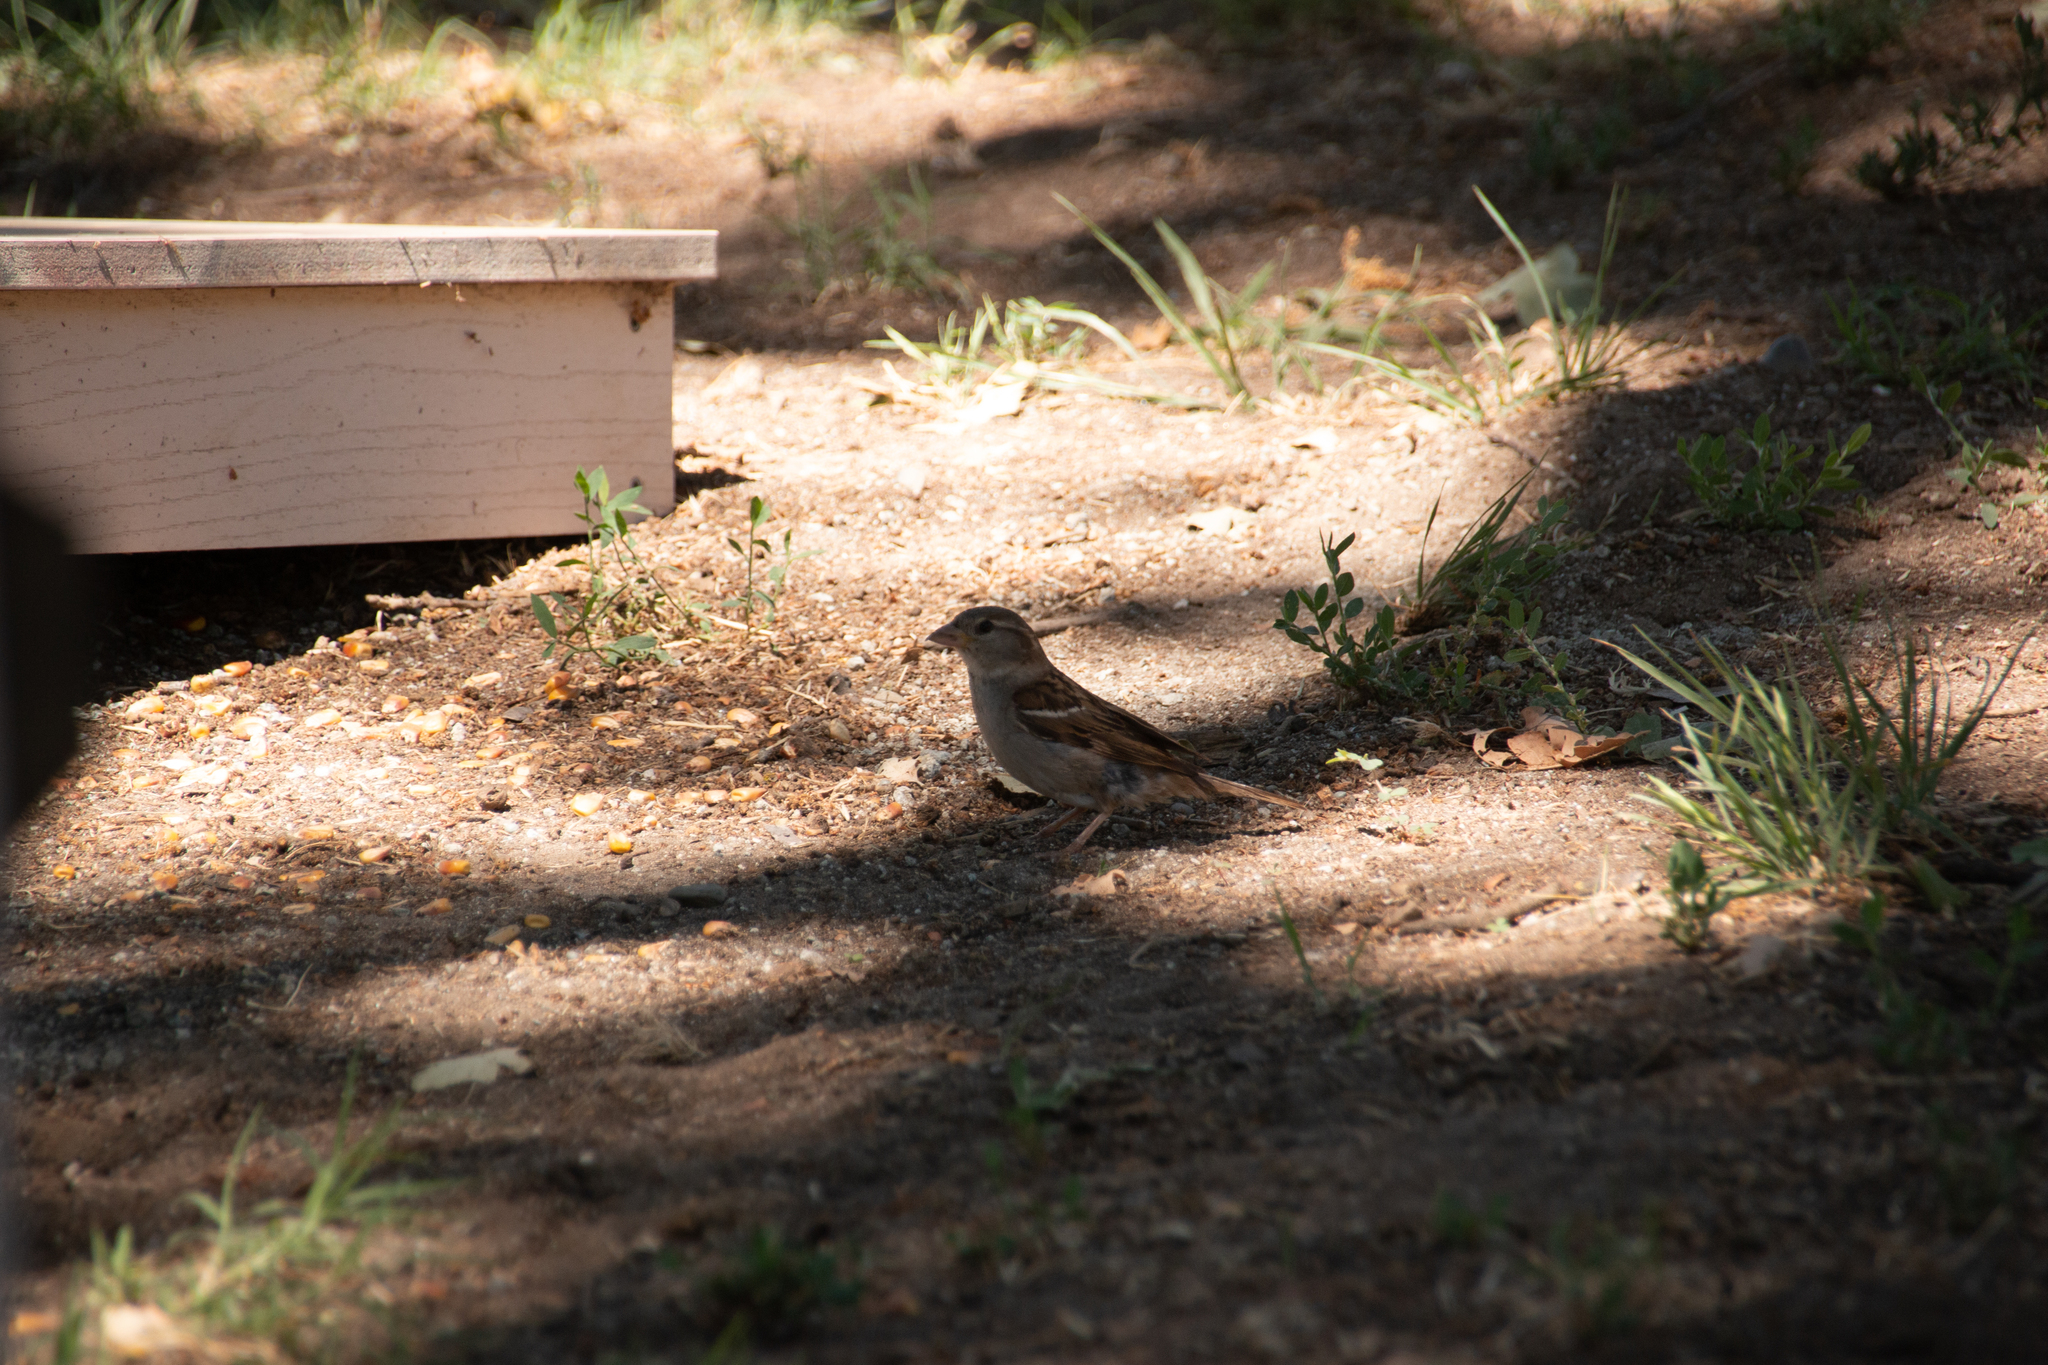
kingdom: Animalia
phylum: Chordata
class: Aves
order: Passeriformes
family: Passeridae
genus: Passer
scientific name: Passer domesticus
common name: House sparrow
